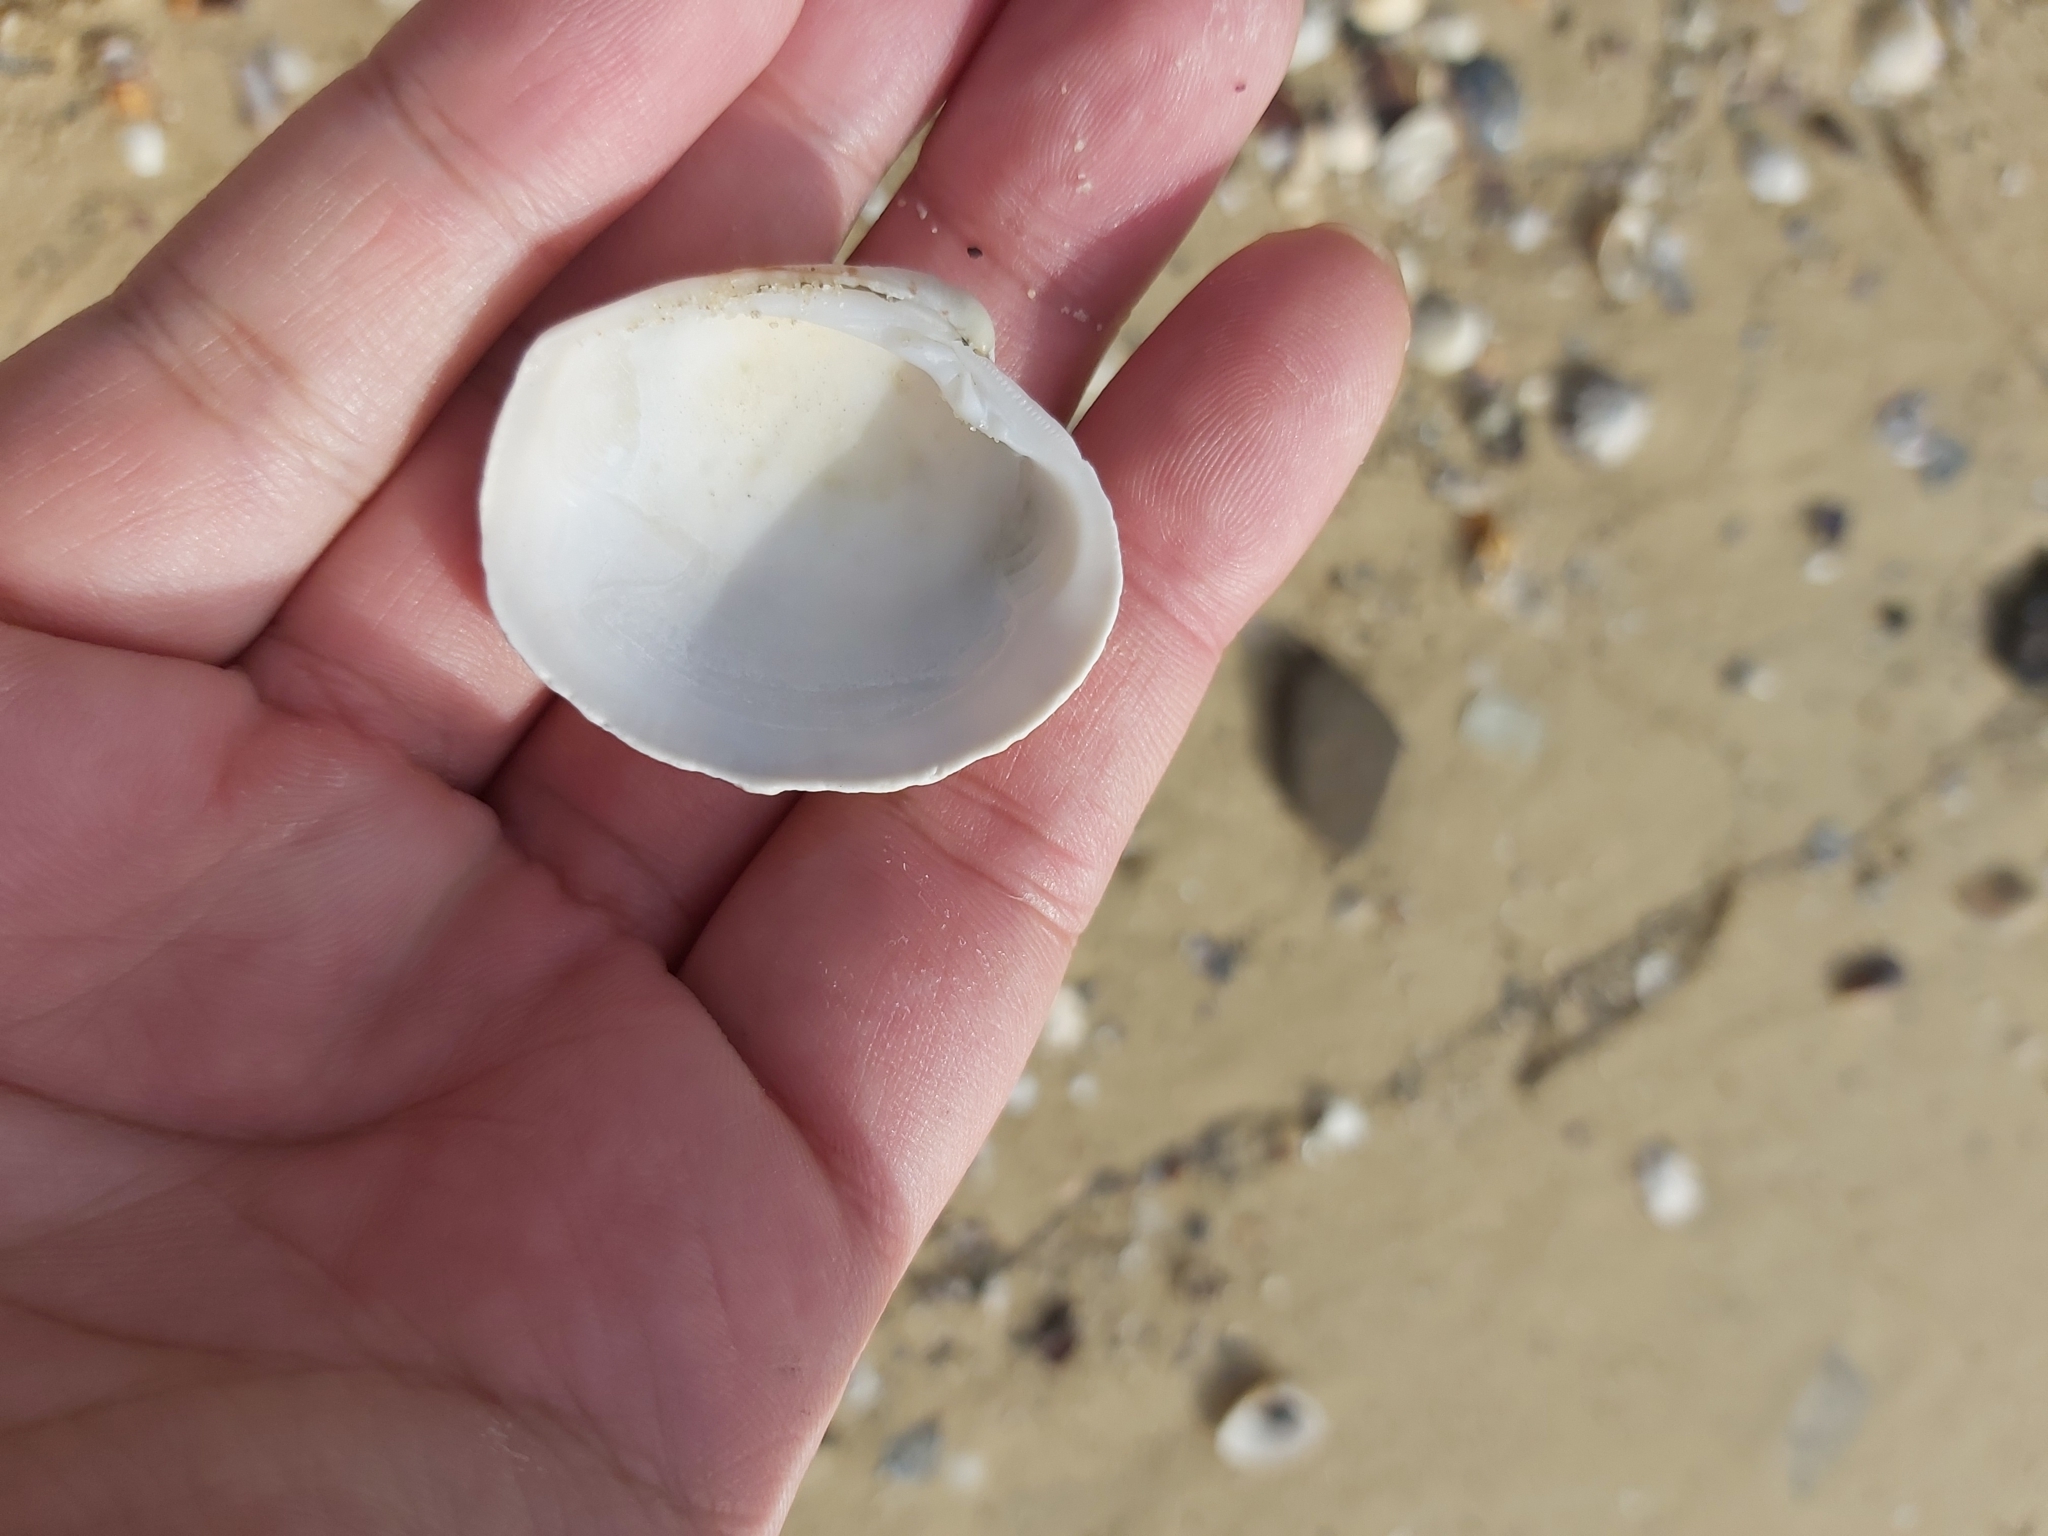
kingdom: Animalia
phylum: Mollusca
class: Bivalvia
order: Venerida
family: Veneridae
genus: Antigona
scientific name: Antigona persimilis
